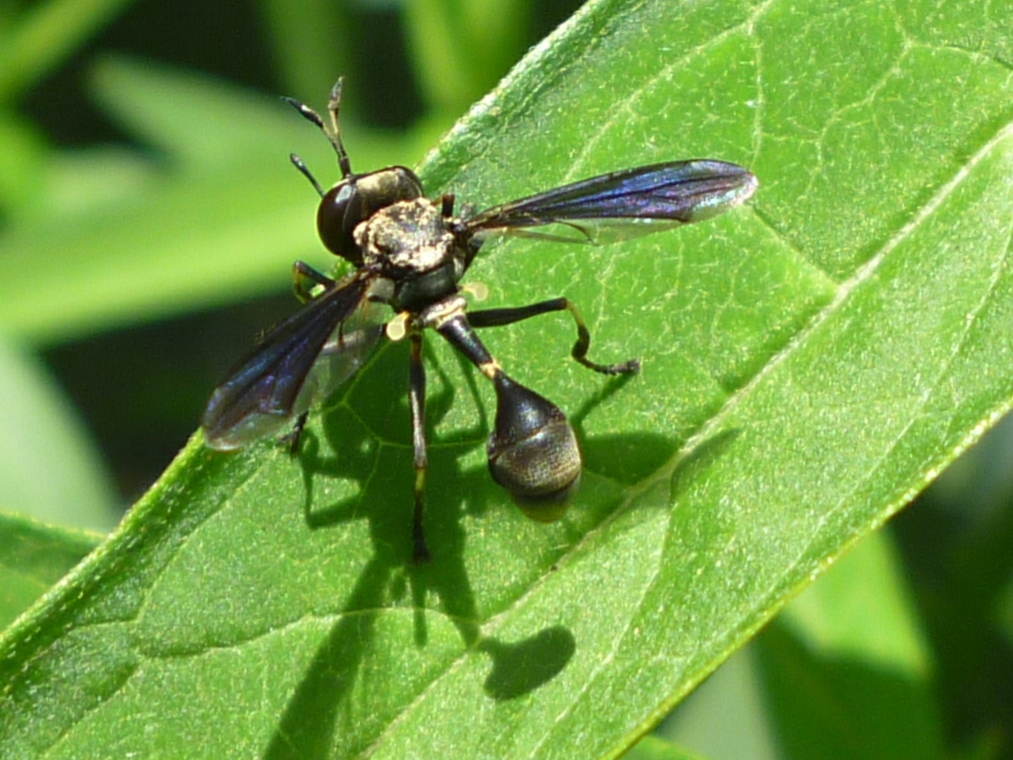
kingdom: Animalia
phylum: Arthropoda
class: Insecta
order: Diptera
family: Conopidae
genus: Physocephala
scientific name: Physocephala tibialis
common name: Common eastern physocephala
